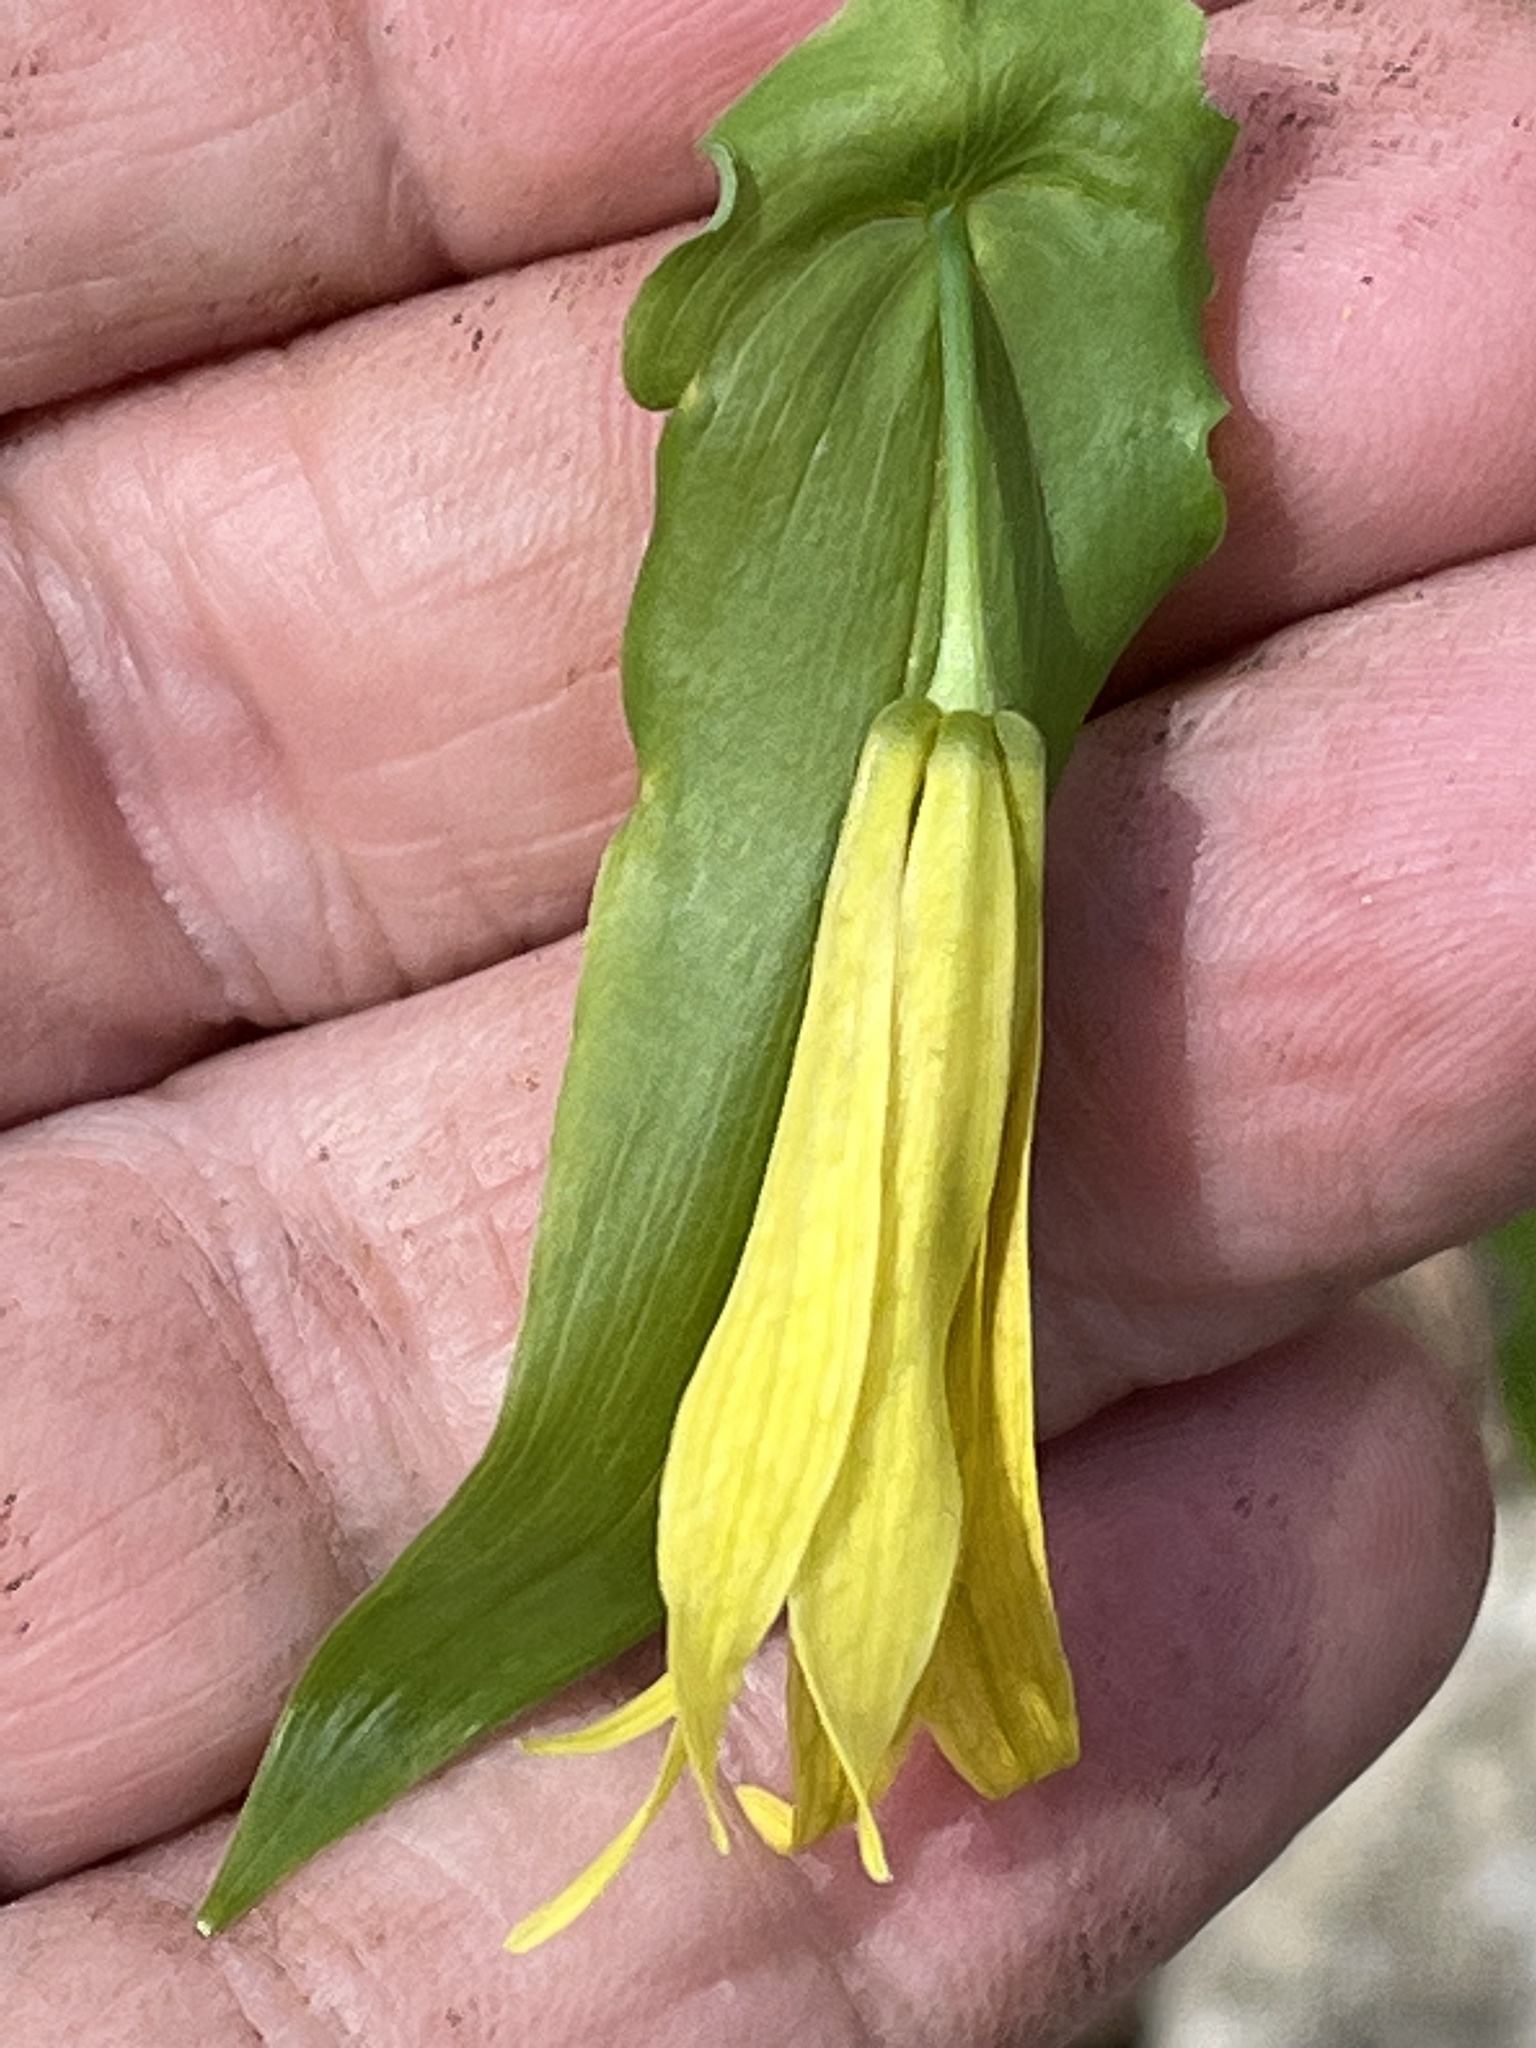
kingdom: Plantae
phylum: Tracheophyta
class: Liliopsida
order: Liliales
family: Colchicaceae
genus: Uvularia
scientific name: Uvularia grandiflora
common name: Bellwort
